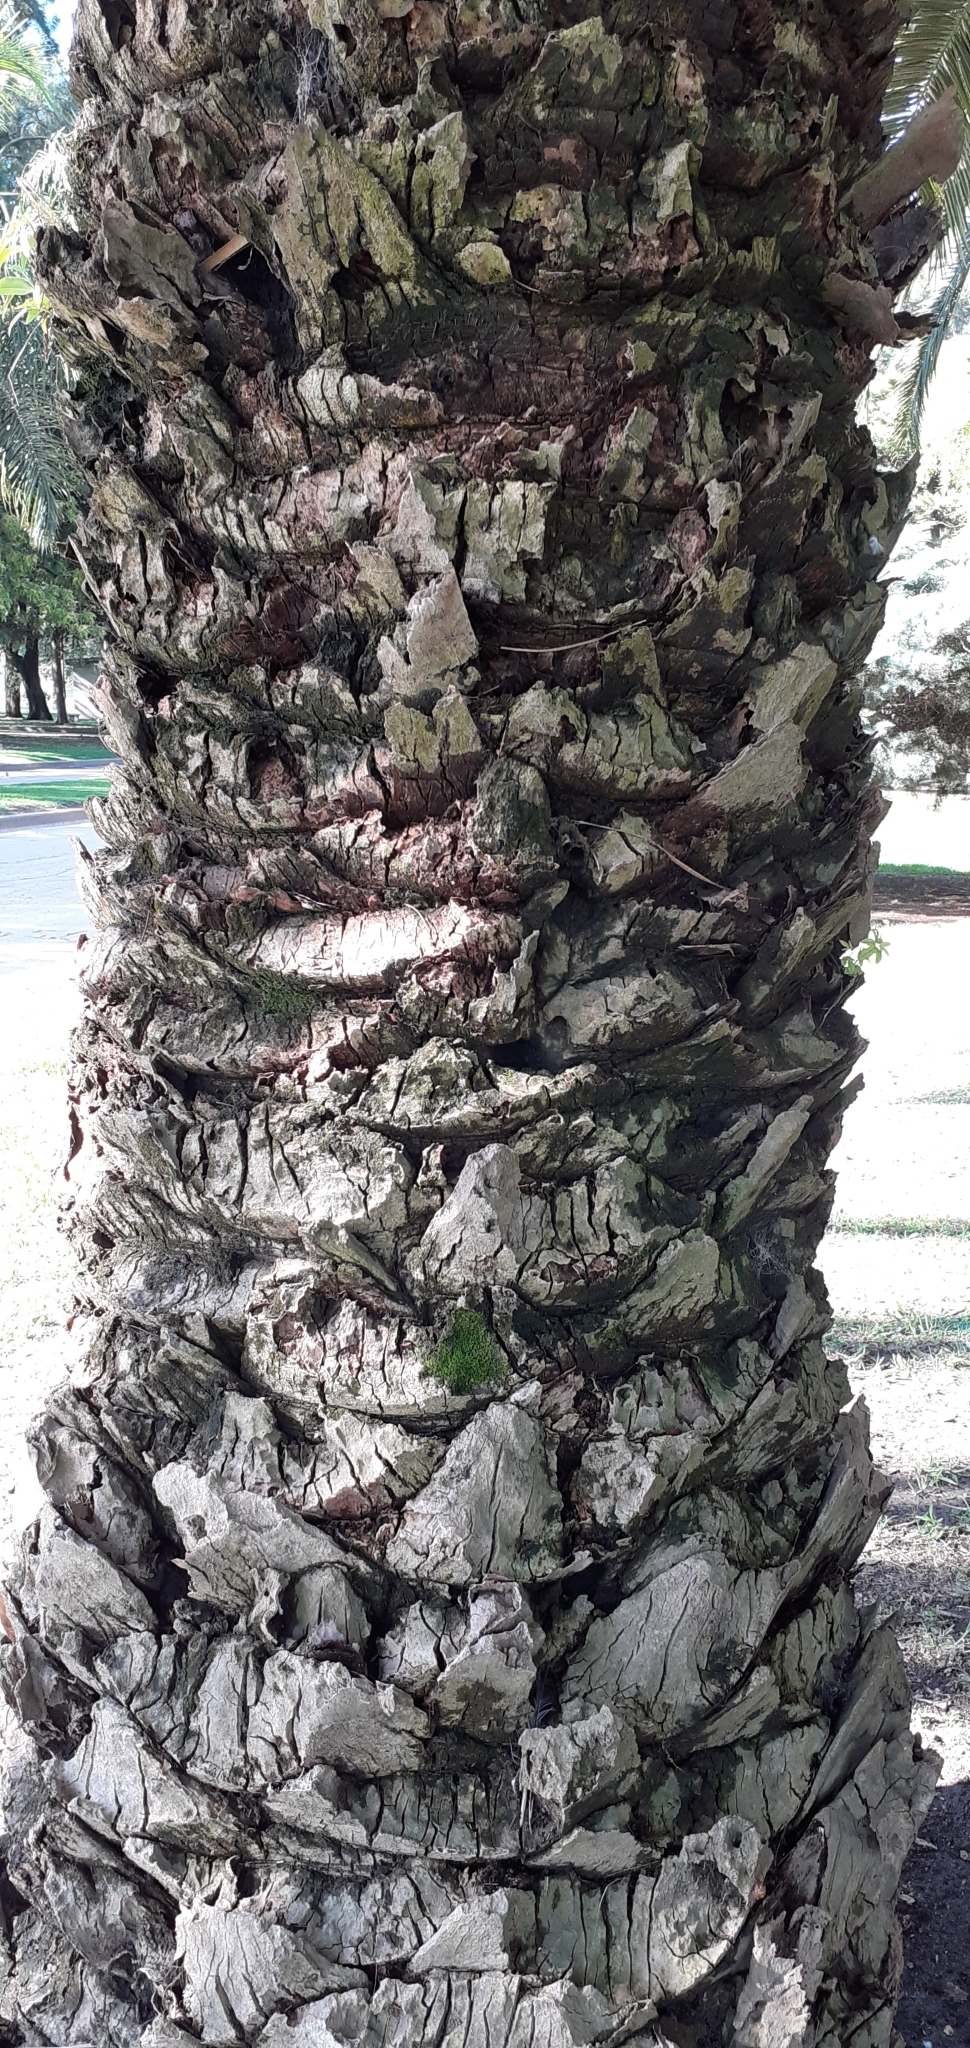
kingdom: Plantae
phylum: Tracheophyta
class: Liliopsida
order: Arecales
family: Arecaceae
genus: Phoenix
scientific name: Phoenix canariensis
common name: Canary island date palm
